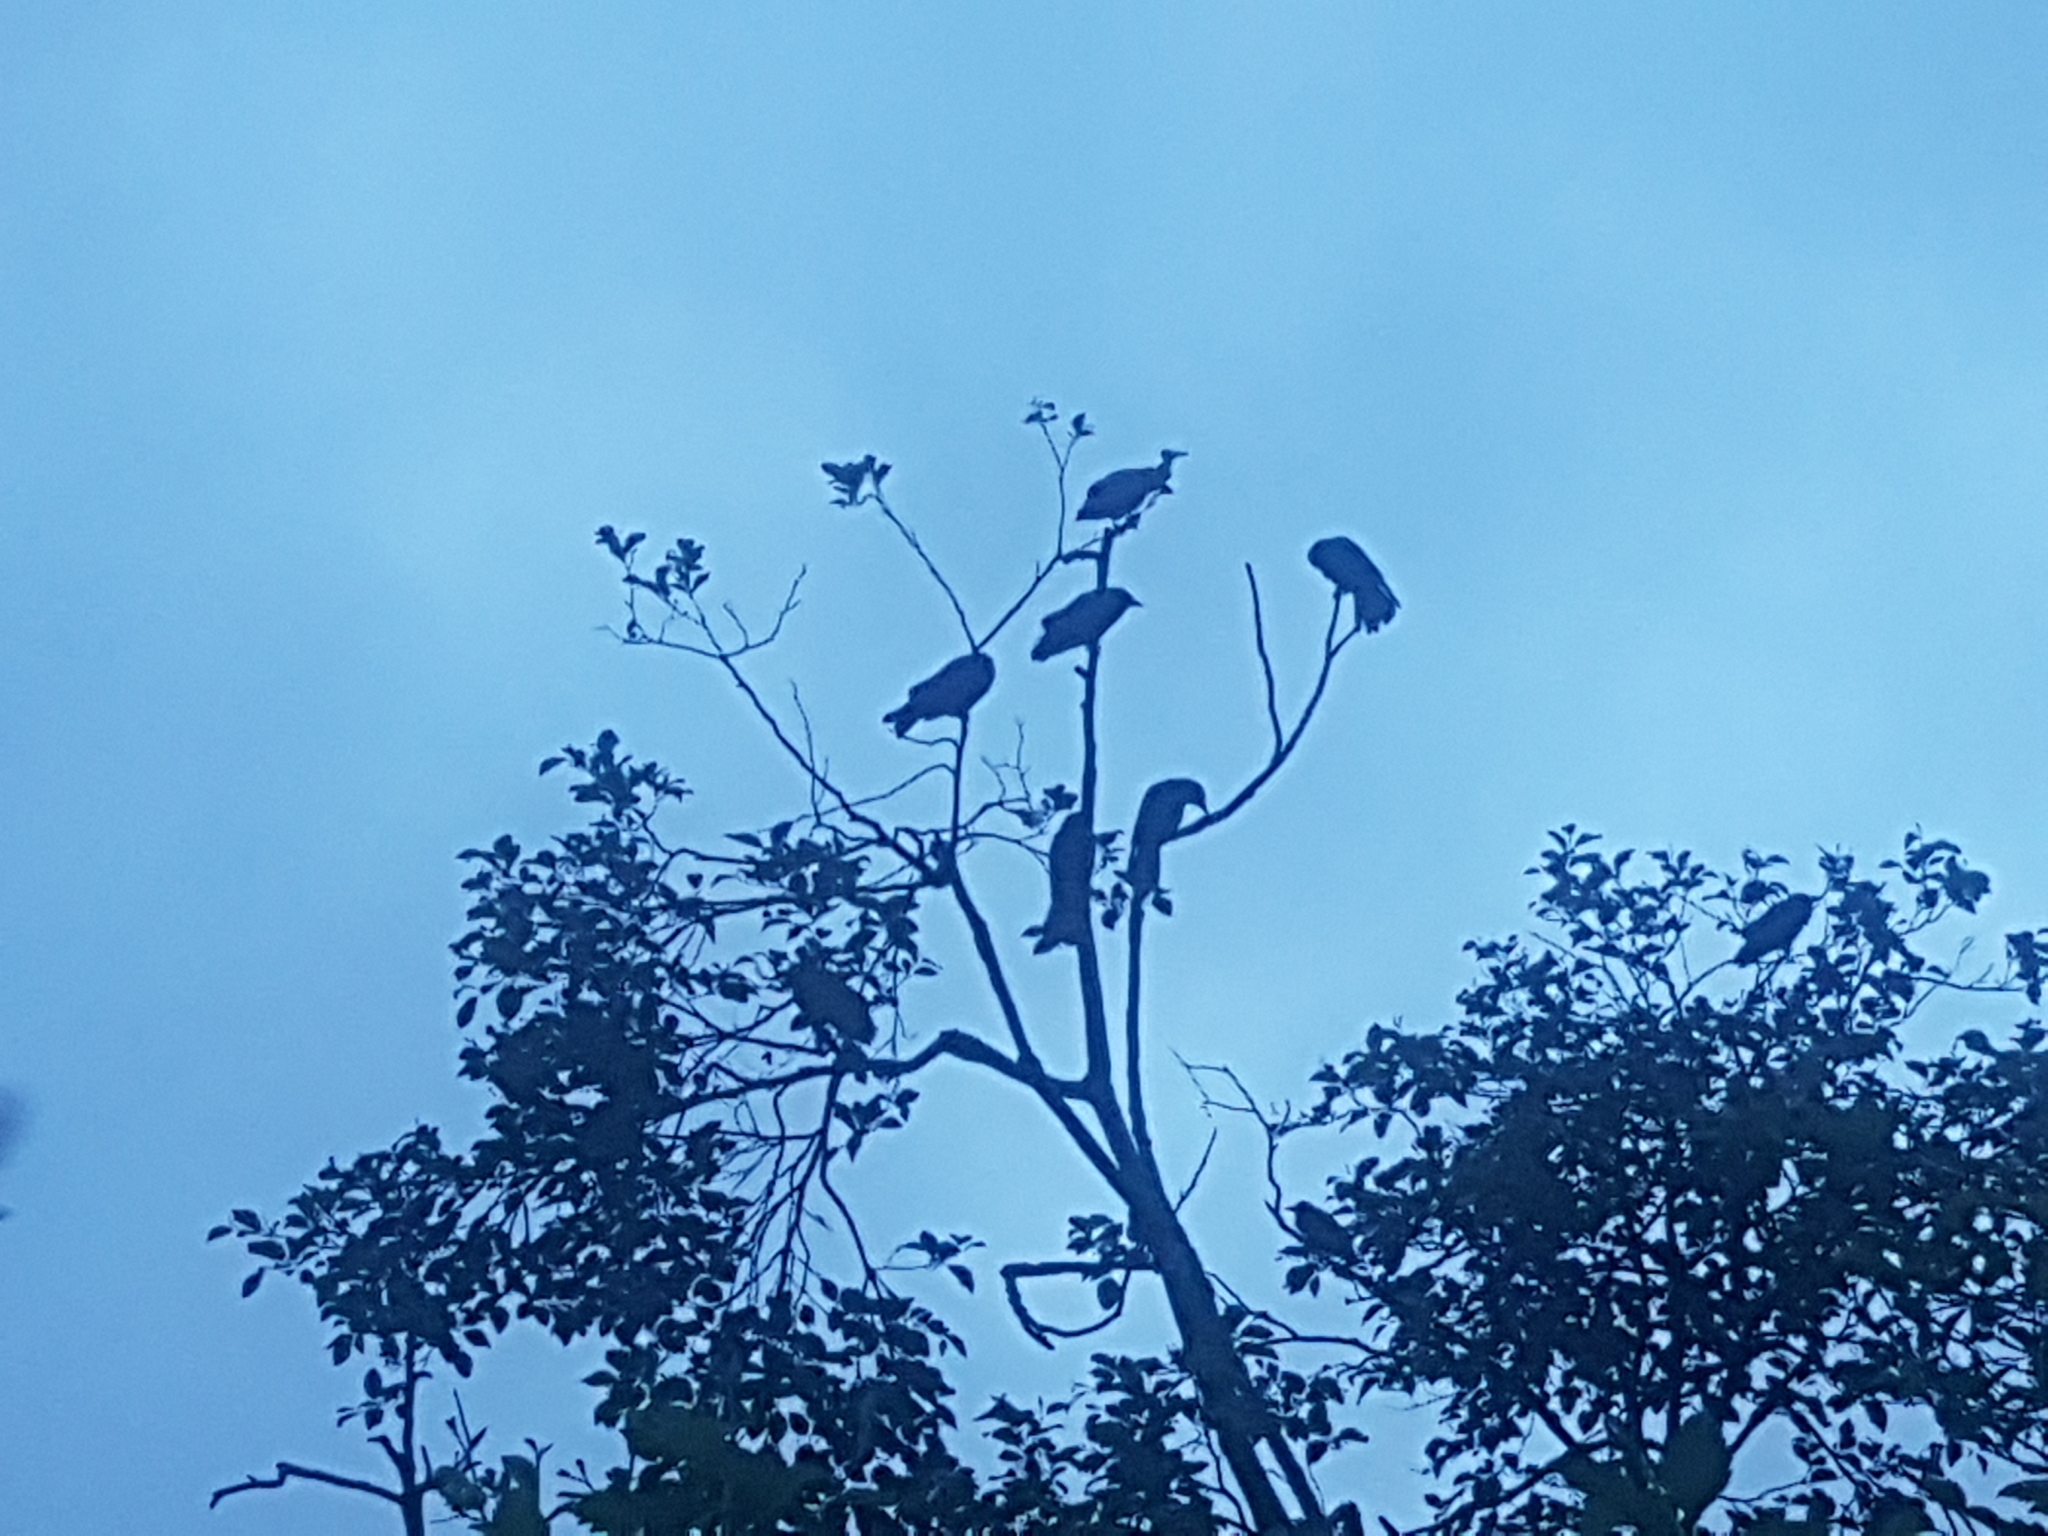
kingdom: Animalia
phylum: Chordata
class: Aves
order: Passeriformes
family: Corvidae
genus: Corvus
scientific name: Corvus brachyrhynchos
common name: American crow
